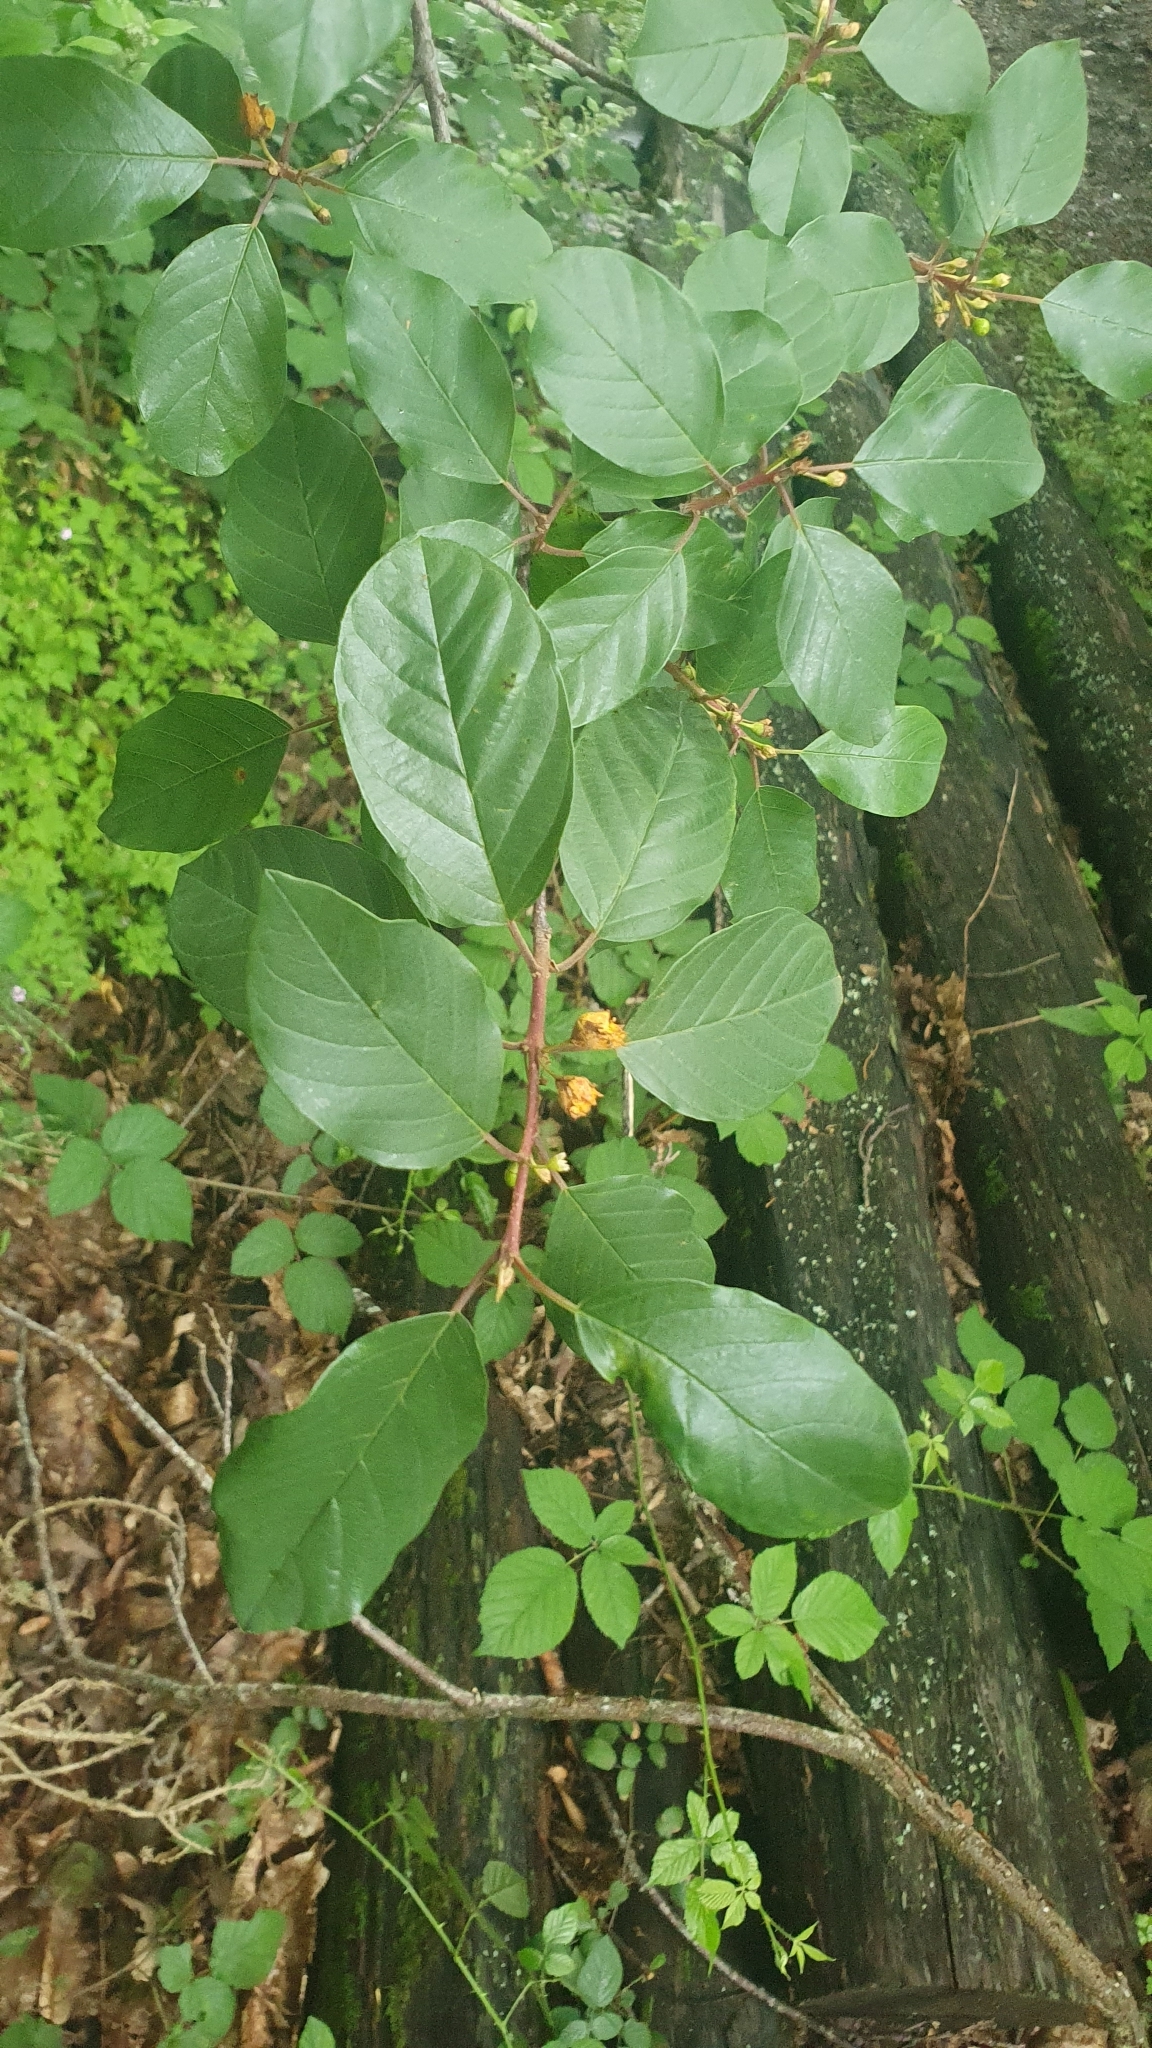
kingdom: Plantae
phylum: Tracheophyta
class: Magnoliopsida
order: Rosales
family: Rhamnaceae
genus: Frangula
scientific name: Frangula alnus
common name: Alder buckthorn
